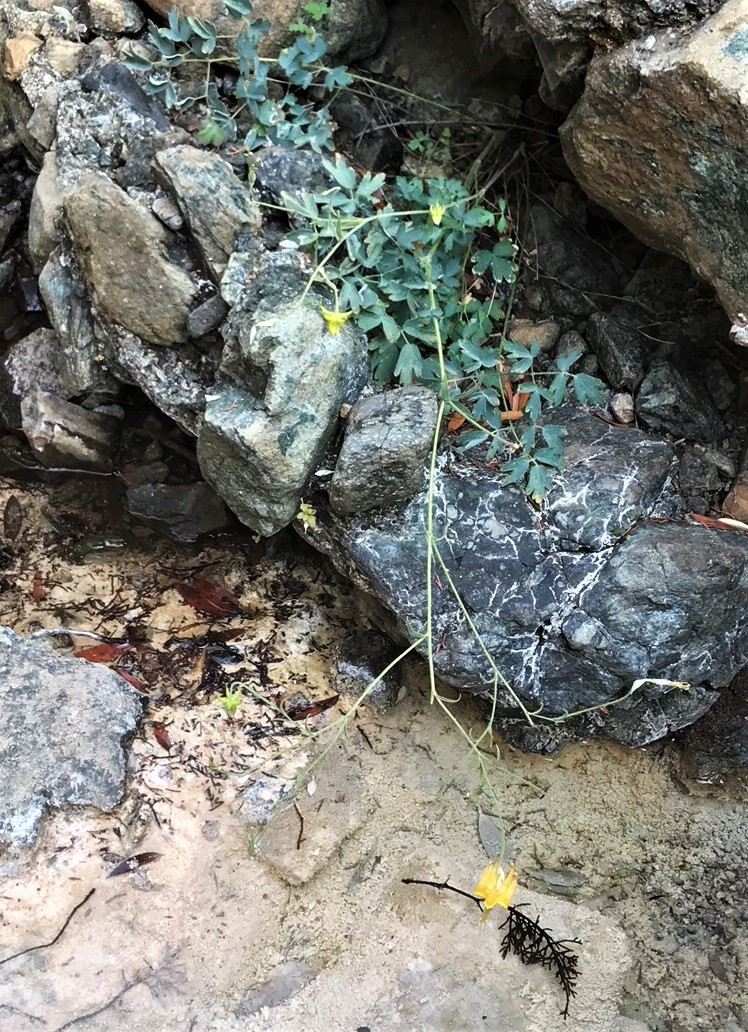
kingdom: Plantae
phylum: Tracheophyta
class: Magnoliopsida
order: Ranunculales
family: Ranunculaceae
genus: Aquilegia
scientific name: Aquilegia eximia
